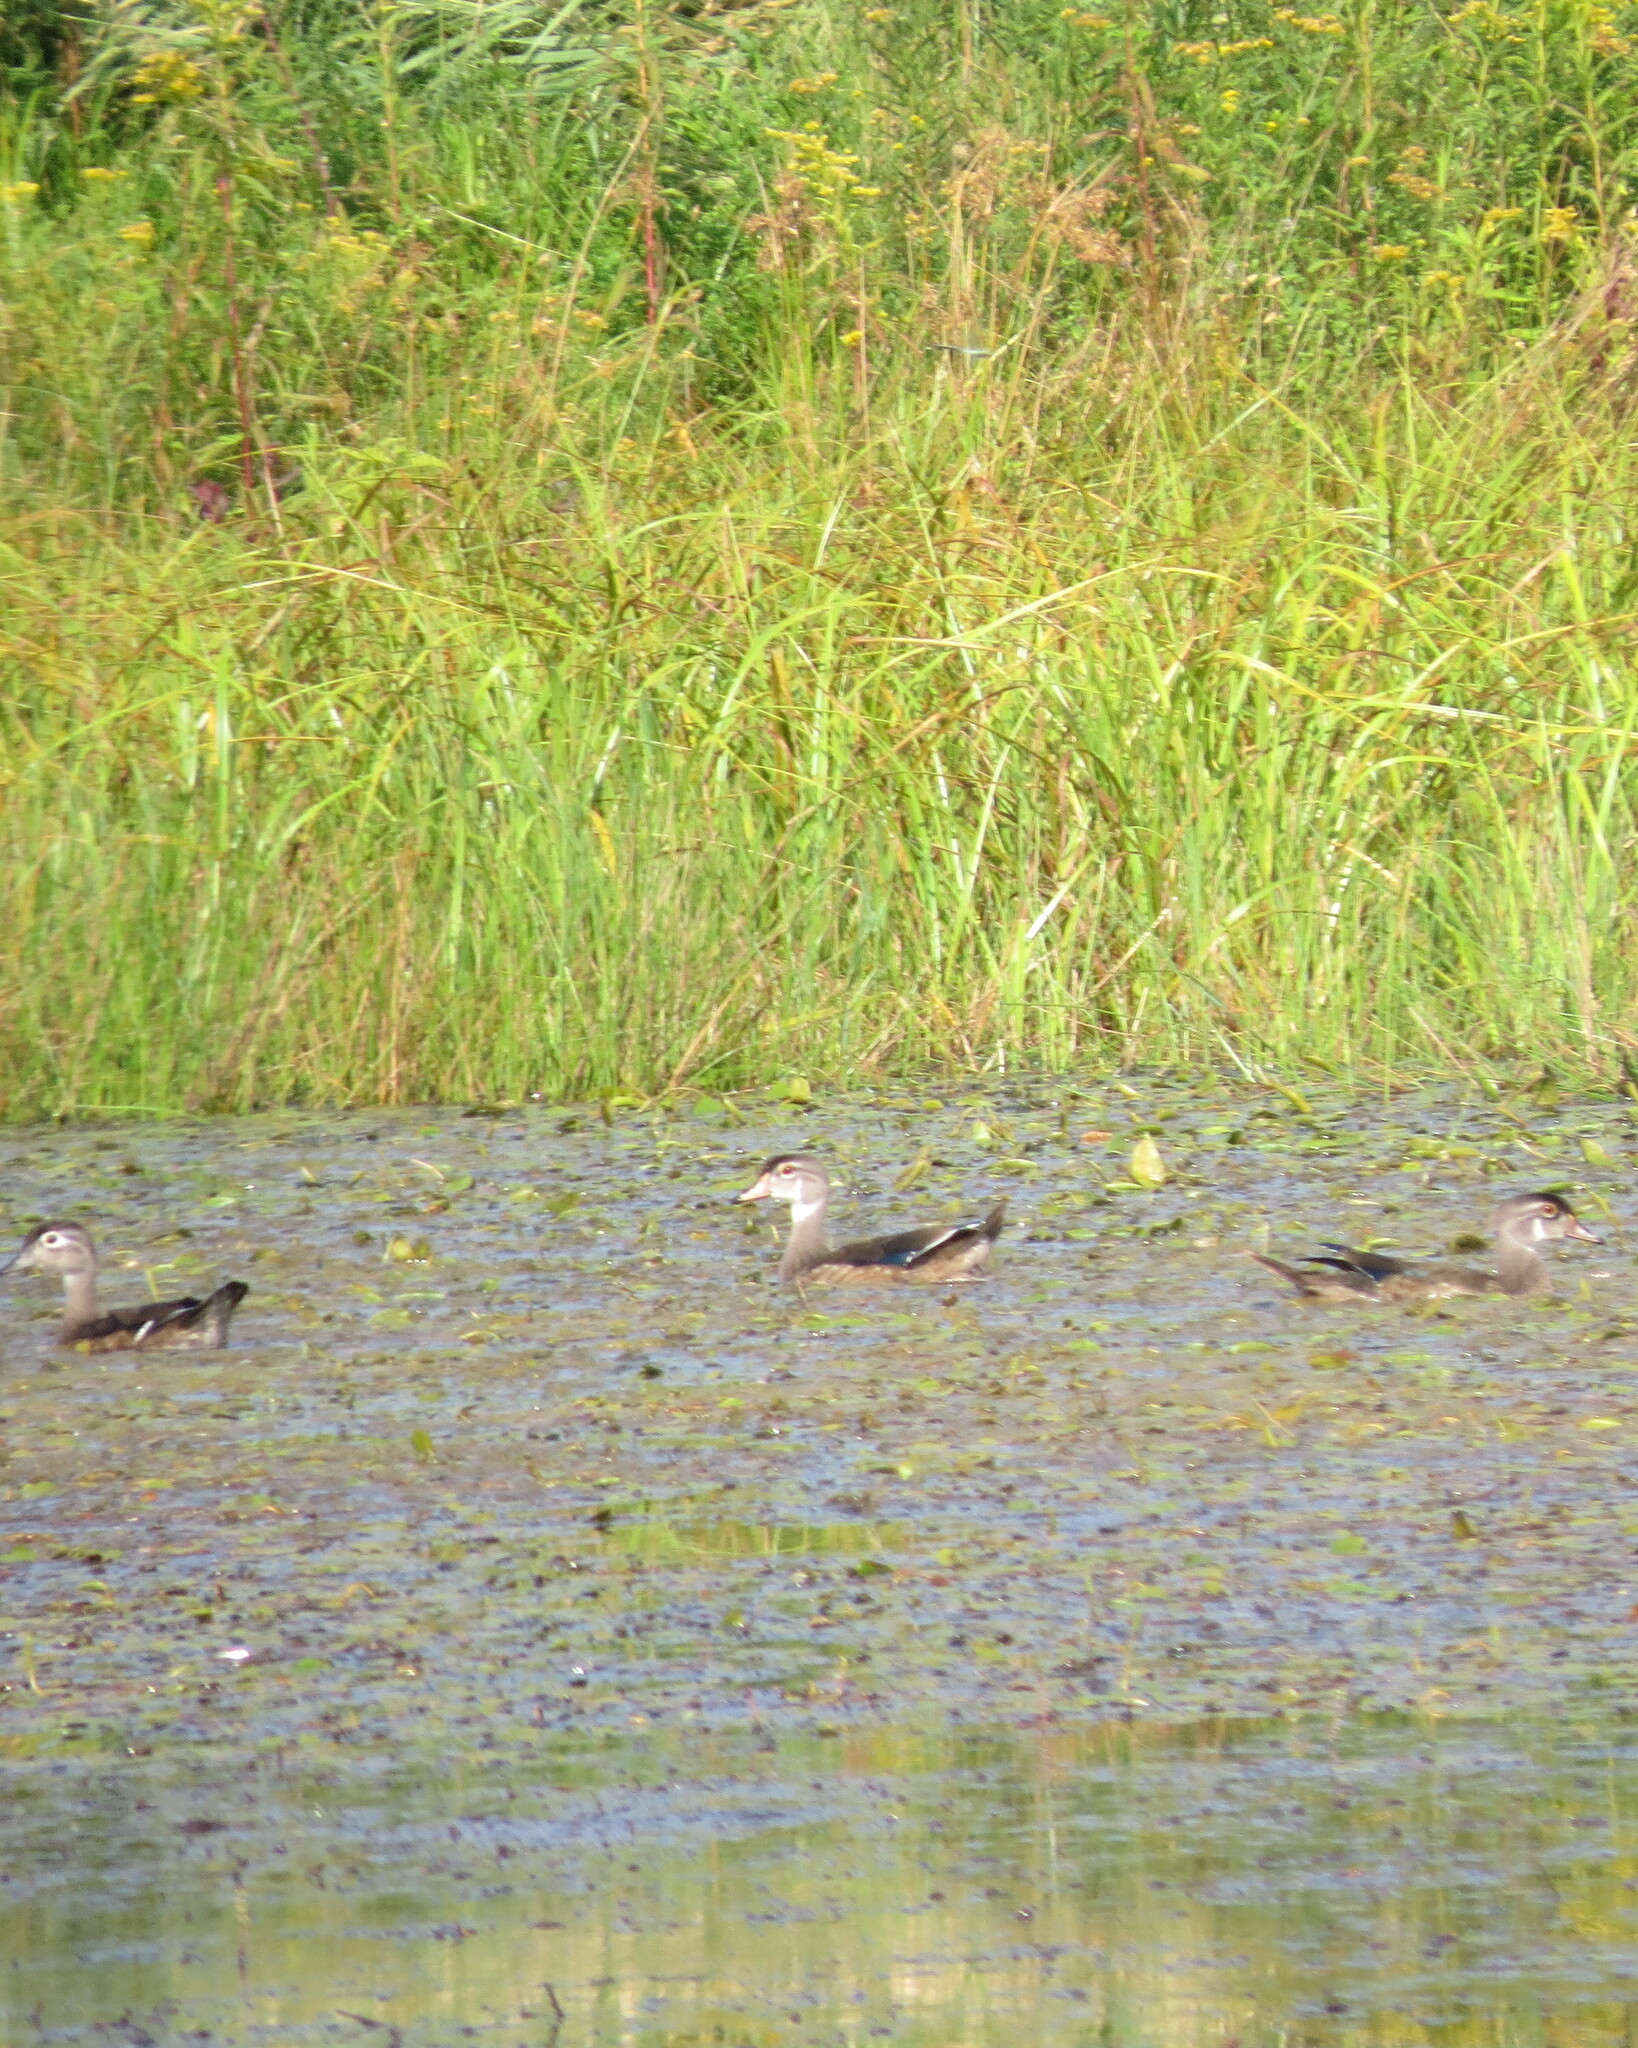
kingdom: Animalia
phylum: Chordata
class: Aves
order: Anseriformes
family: Anatidae
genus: Aix
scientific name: Aix sponsa
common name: Wood duck
